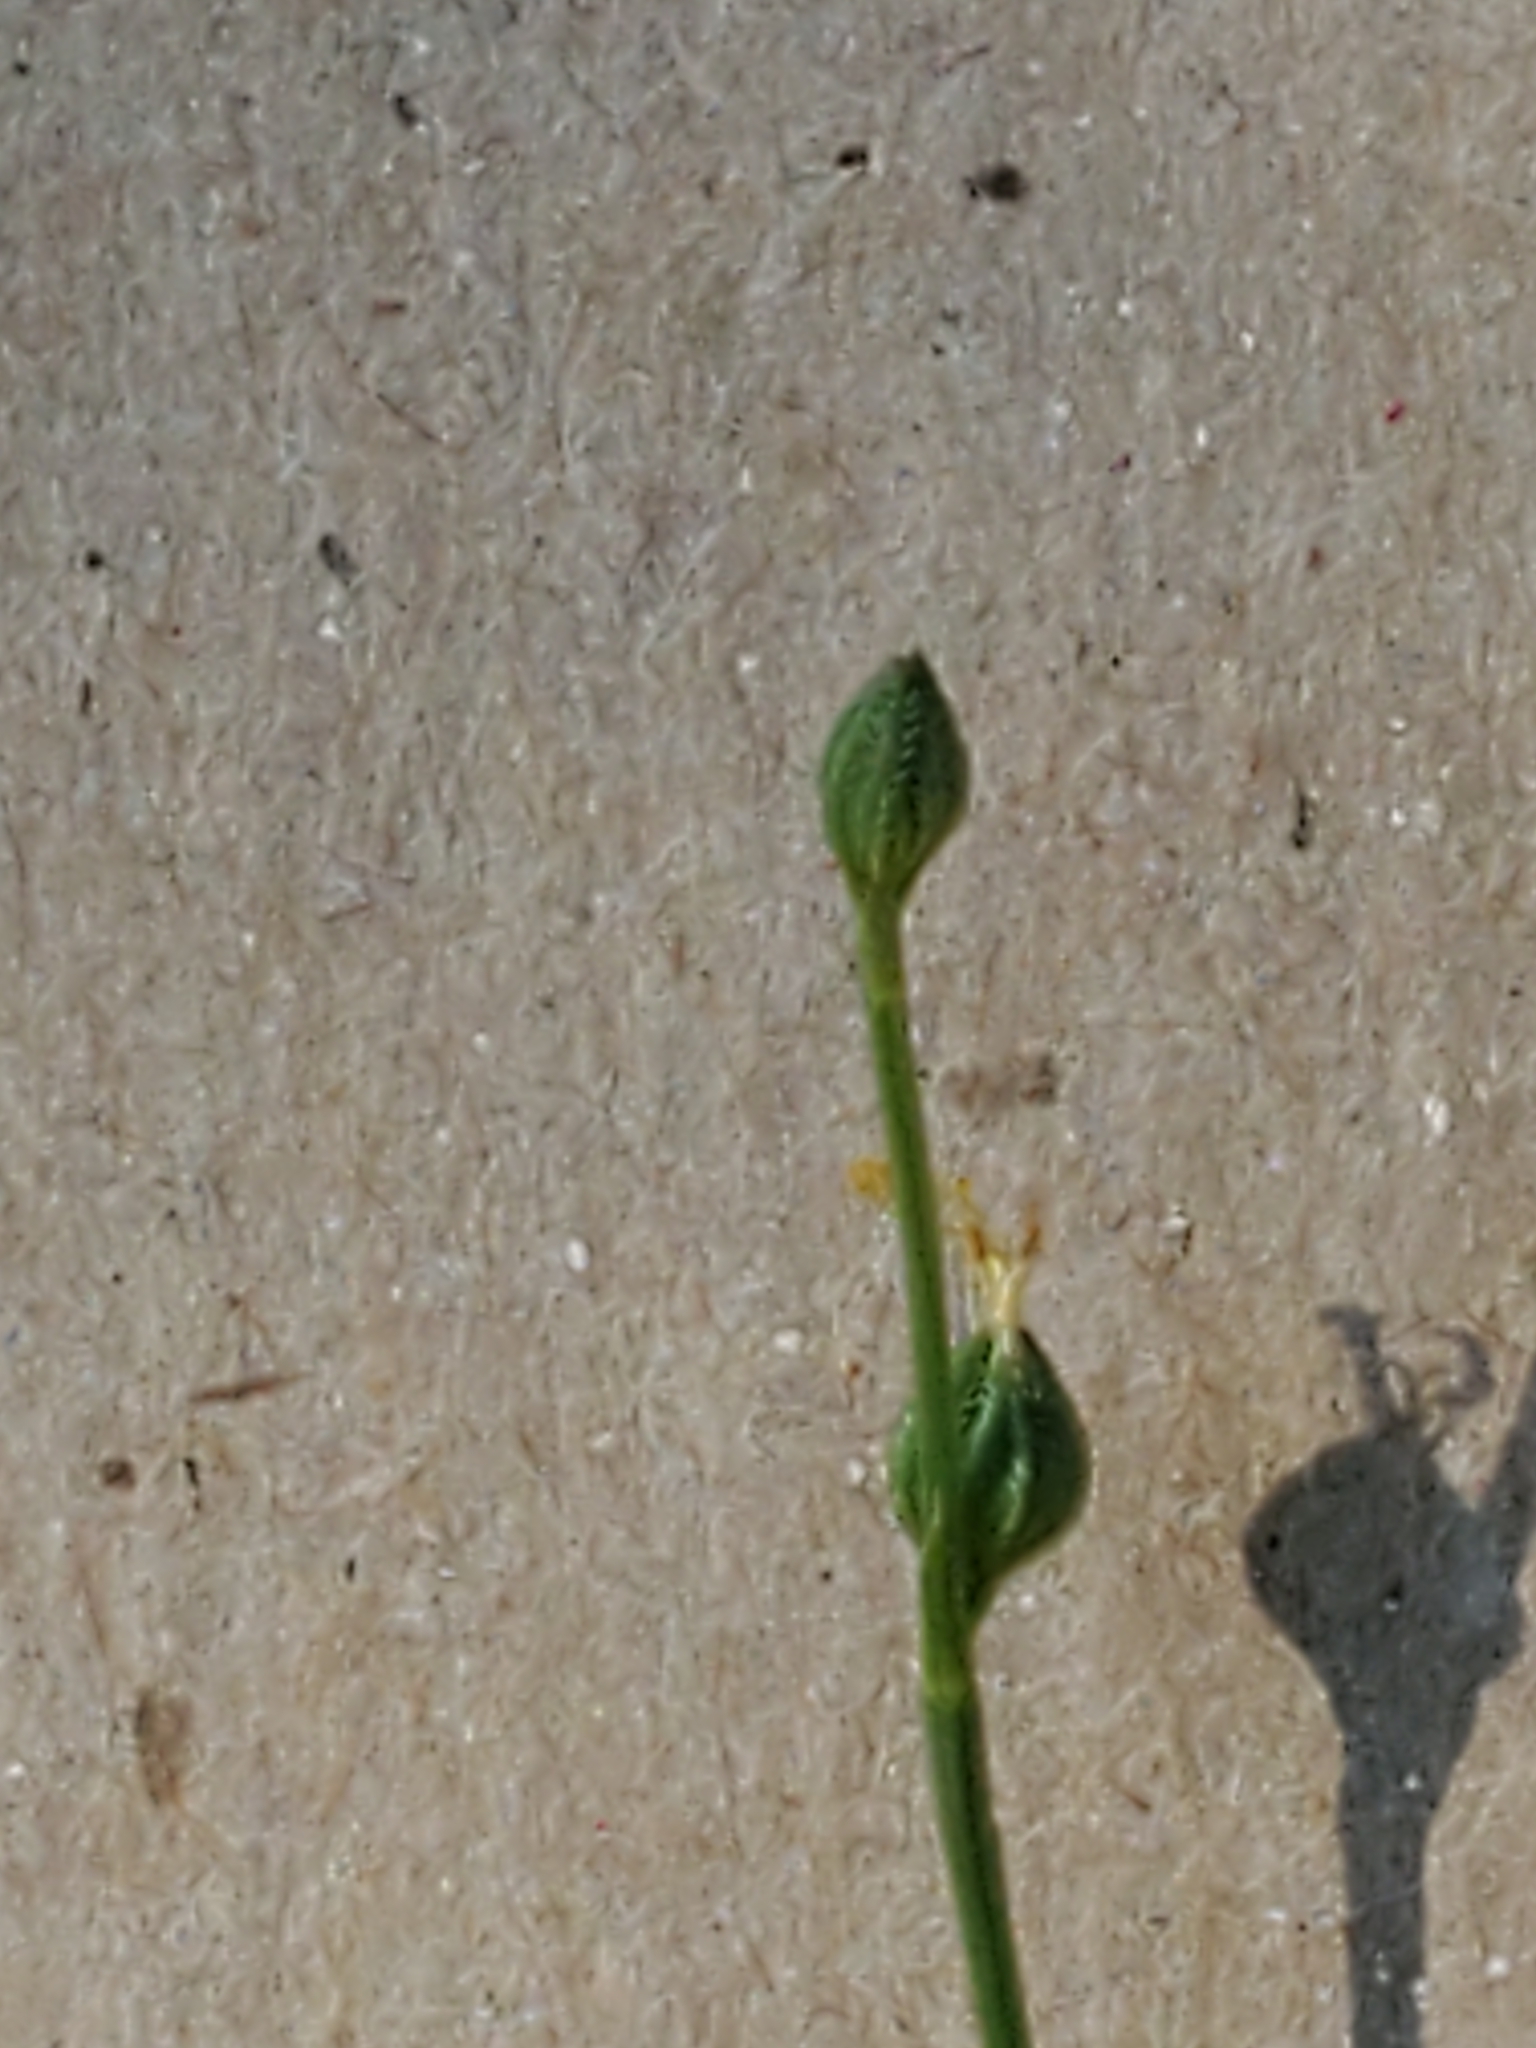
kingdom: Plantae
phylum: Tracheophyta
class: Magnoliopsida
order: Malpighiales
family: Linaceae
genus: Linum
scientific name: Linum rupestre
